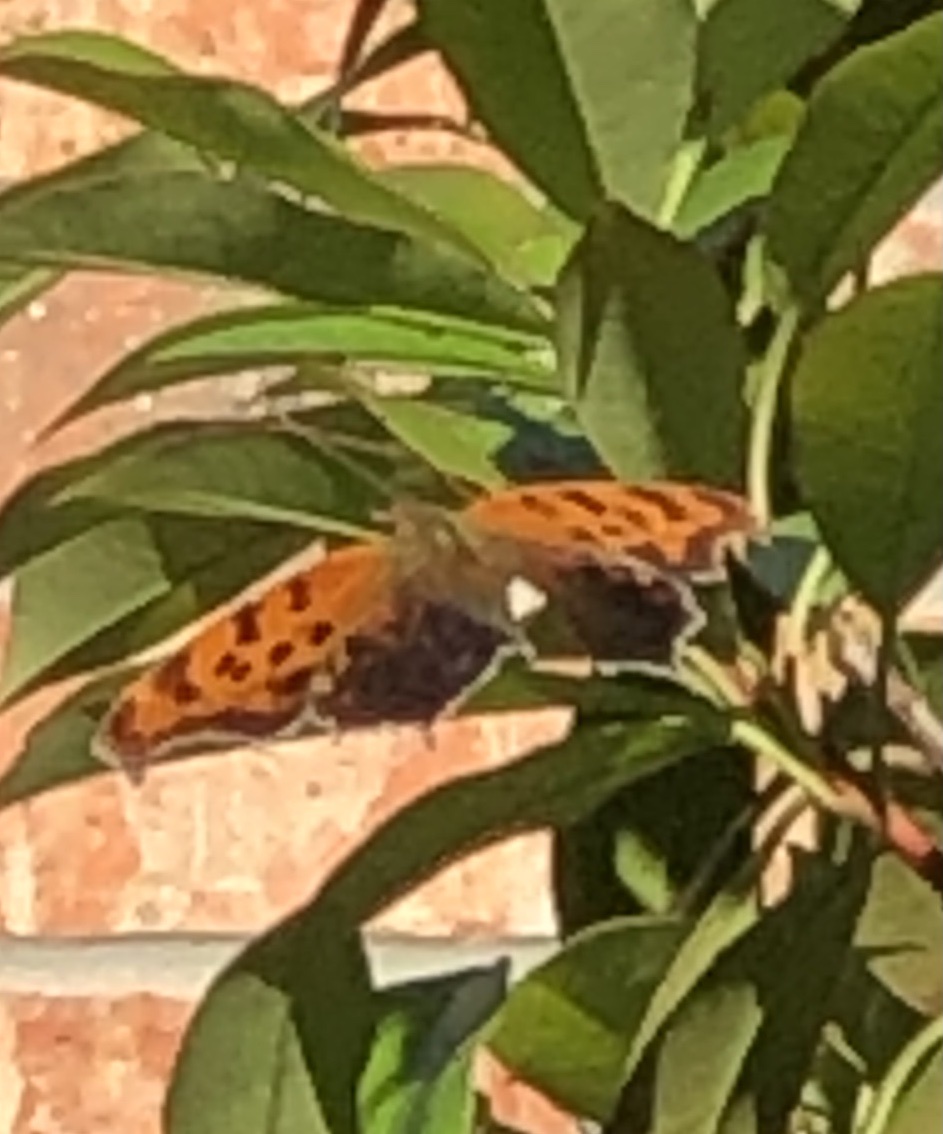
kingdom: Animalia
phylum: Arthropoda
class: Insecta
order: Lepidoptera
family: Nymphalidae
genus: Polygonia
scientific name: Polygonia interrogationis
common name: Question mark
